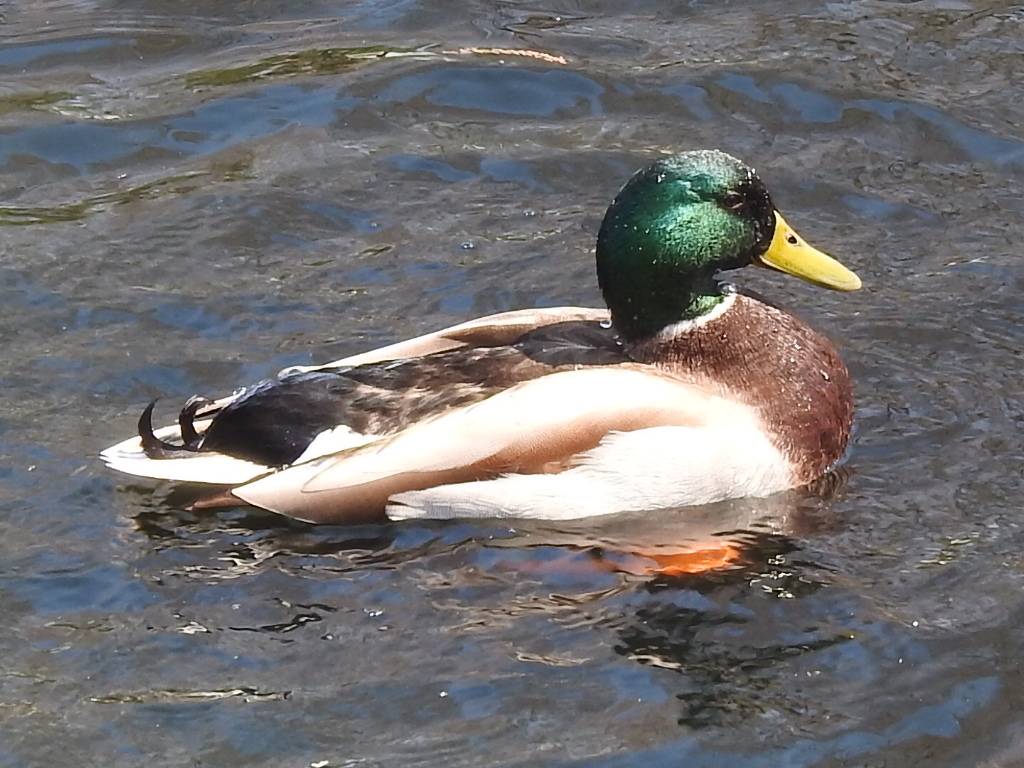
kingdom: Animalia
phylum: Chordata
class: Aves
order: Anseriformes
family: Anatidae
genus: Anas
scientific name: Anas platyrhynchos
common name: Mallard
